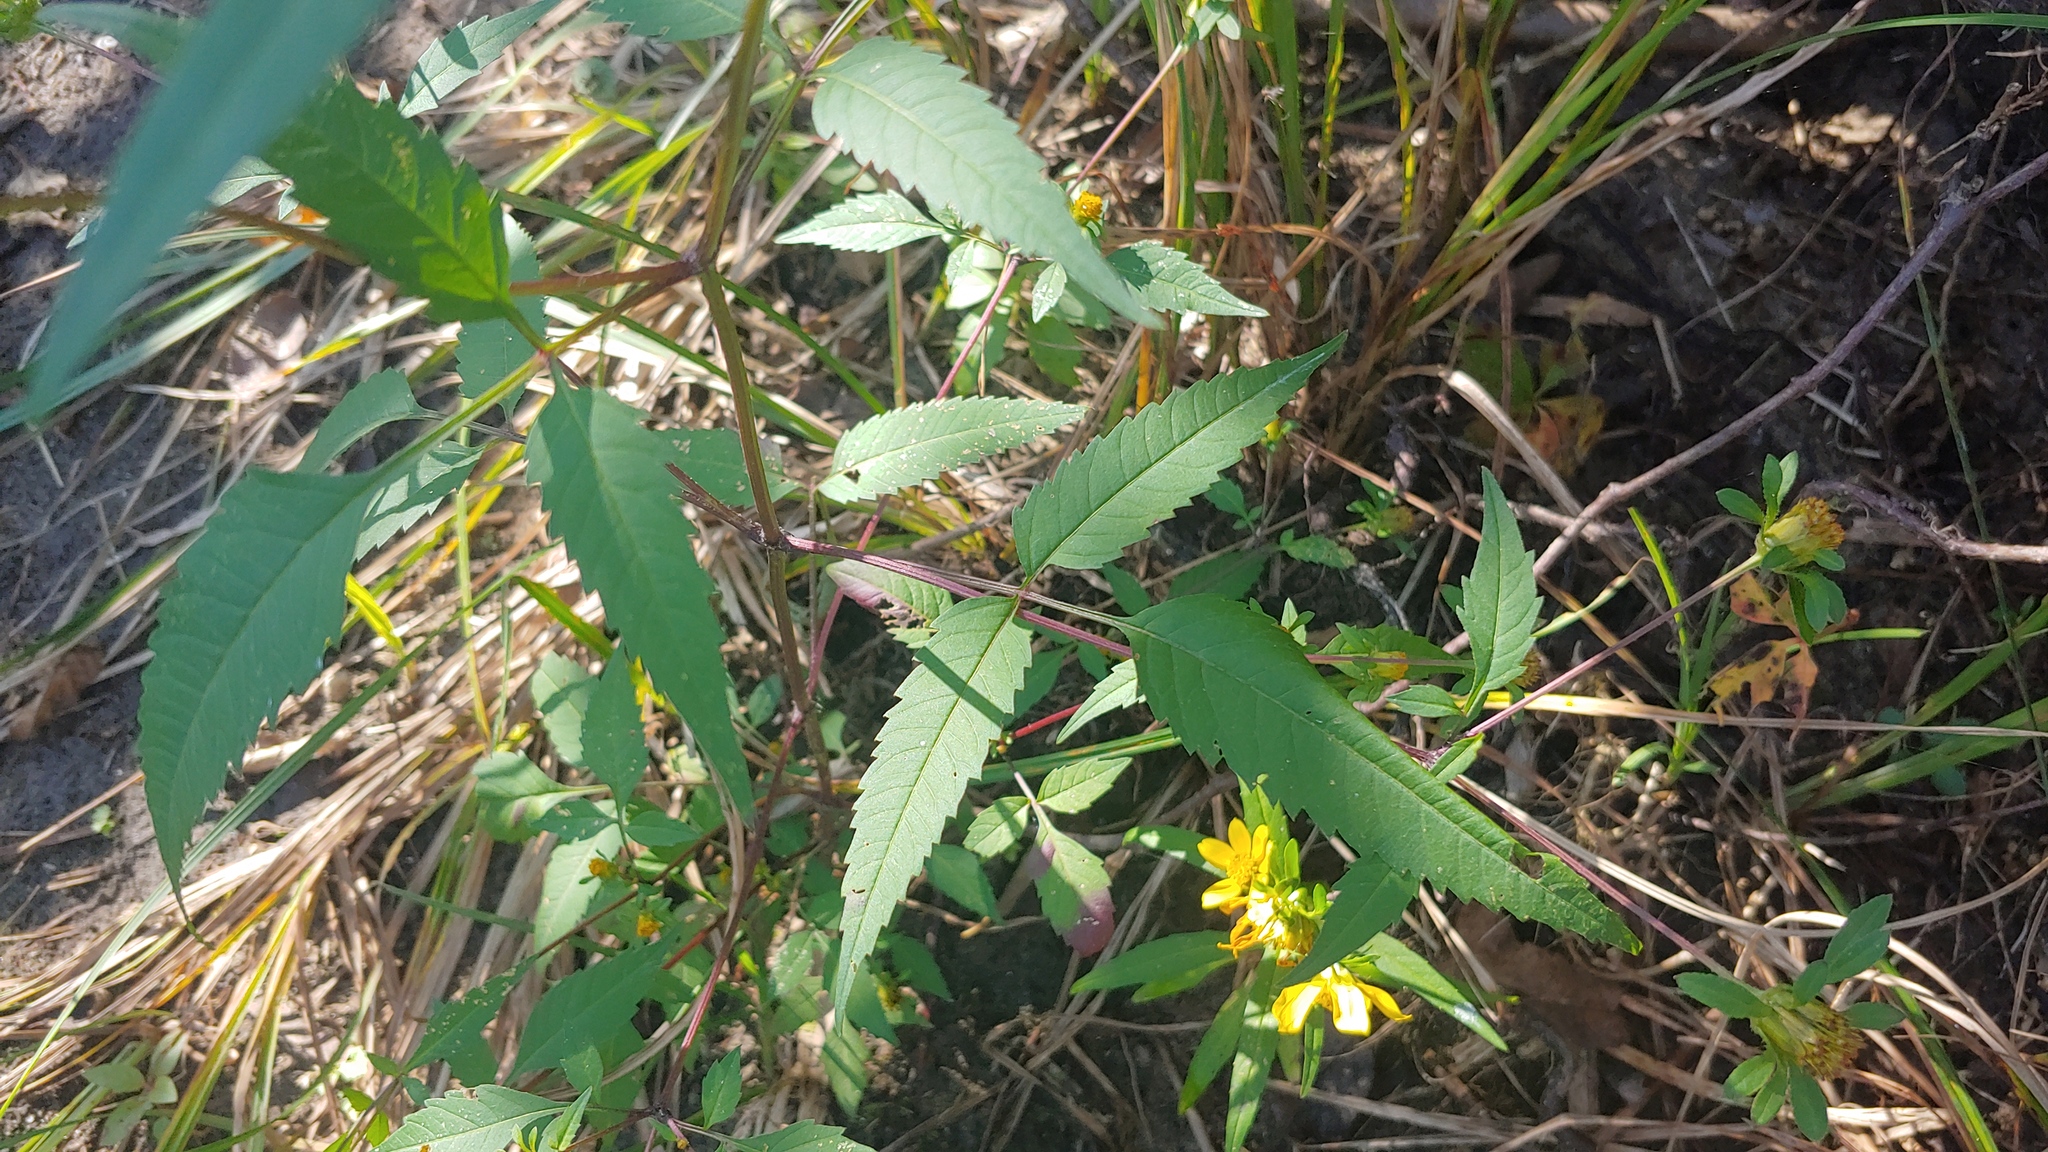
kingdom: Plantae
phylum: Tracheophyta
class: Magnoliopsida
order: Asterales
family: Asteraceae
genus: Bidens
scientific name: Bidens frondosa
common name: Beggarticks
